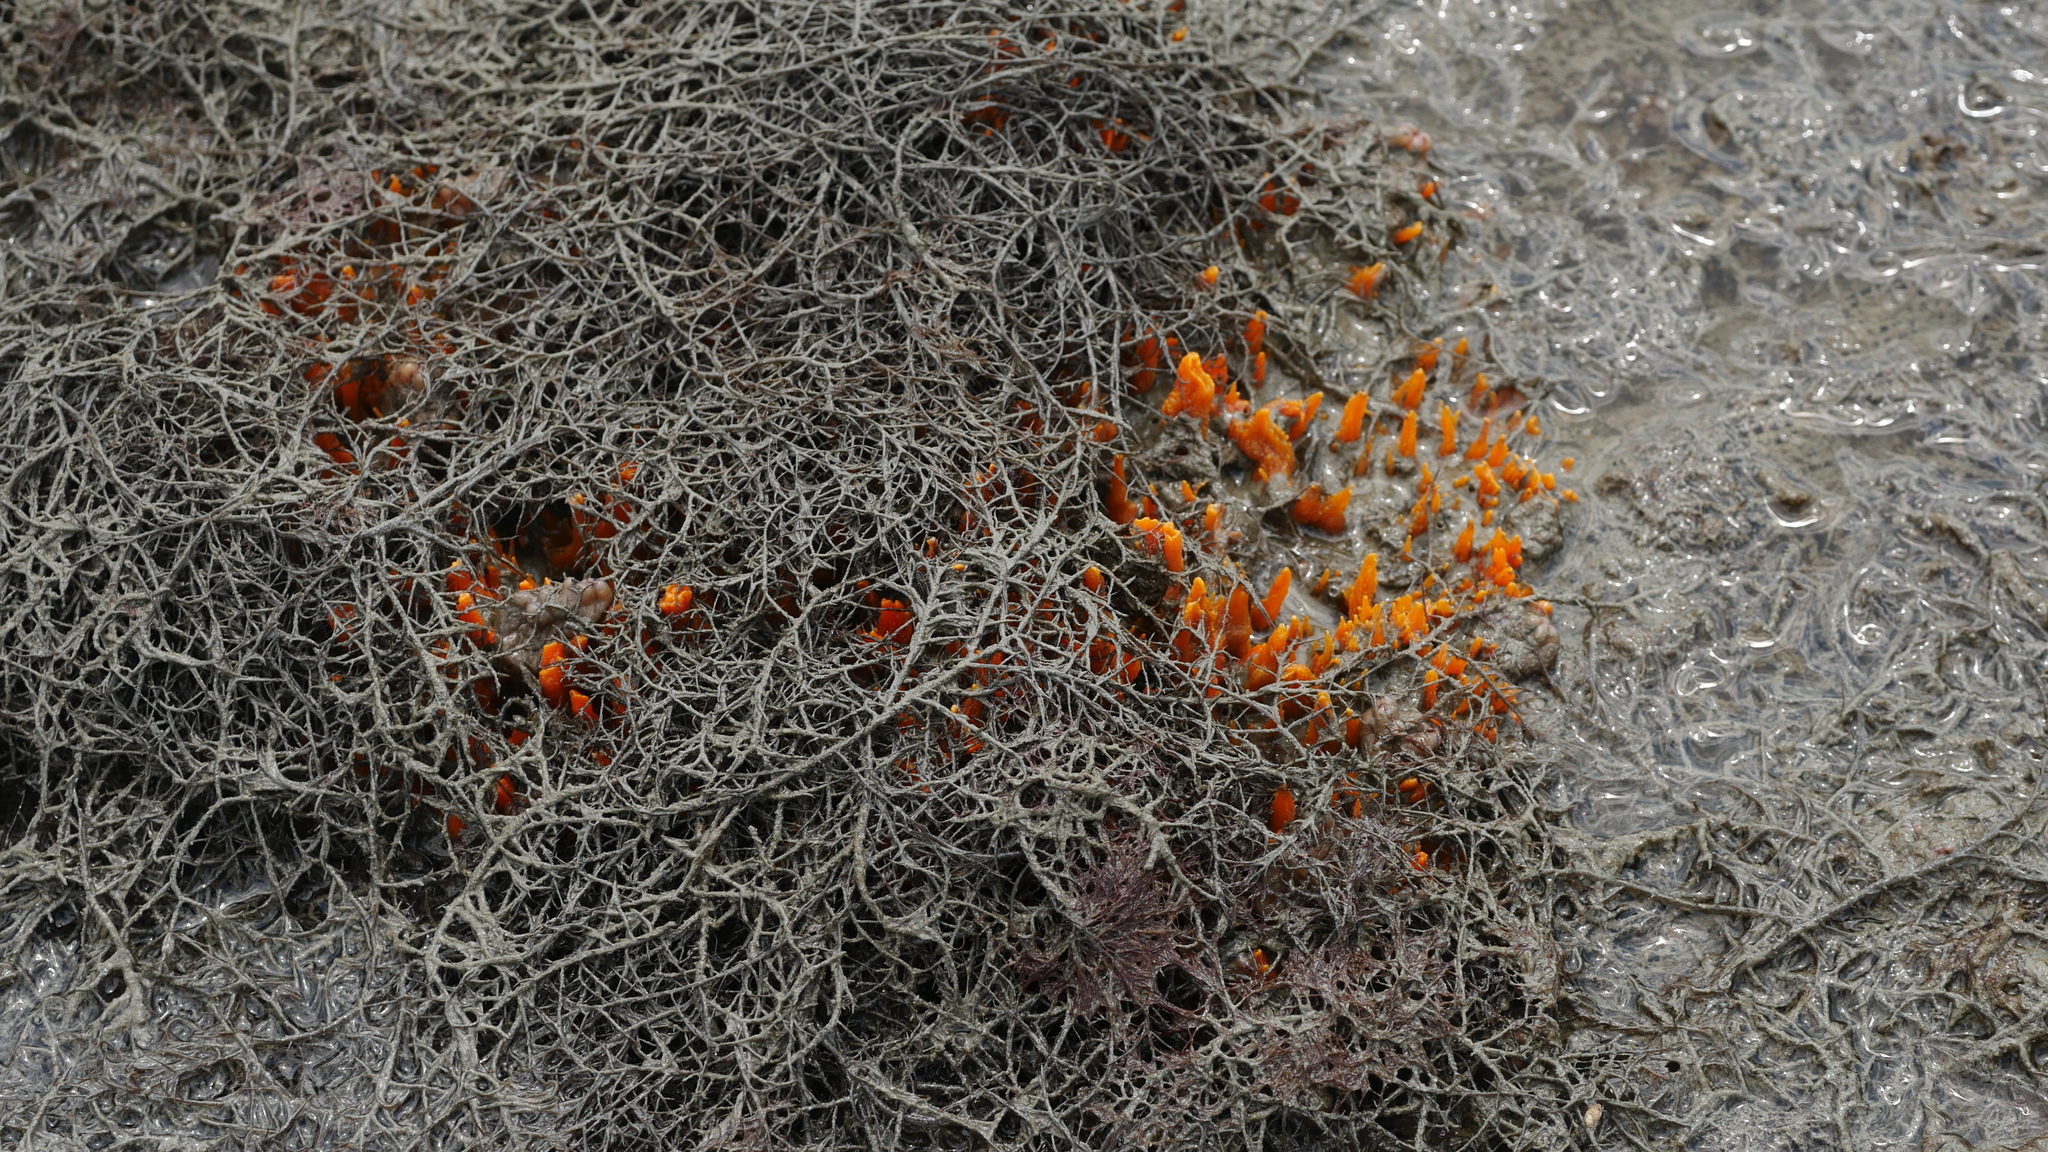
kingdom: Animalia
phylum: Porifera
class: Demospongiae
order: Suberitida
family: Halichondriidae
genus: Hymeniacidon
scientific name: Hymeniacidon heliophila
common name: Diurnal horny sponge
